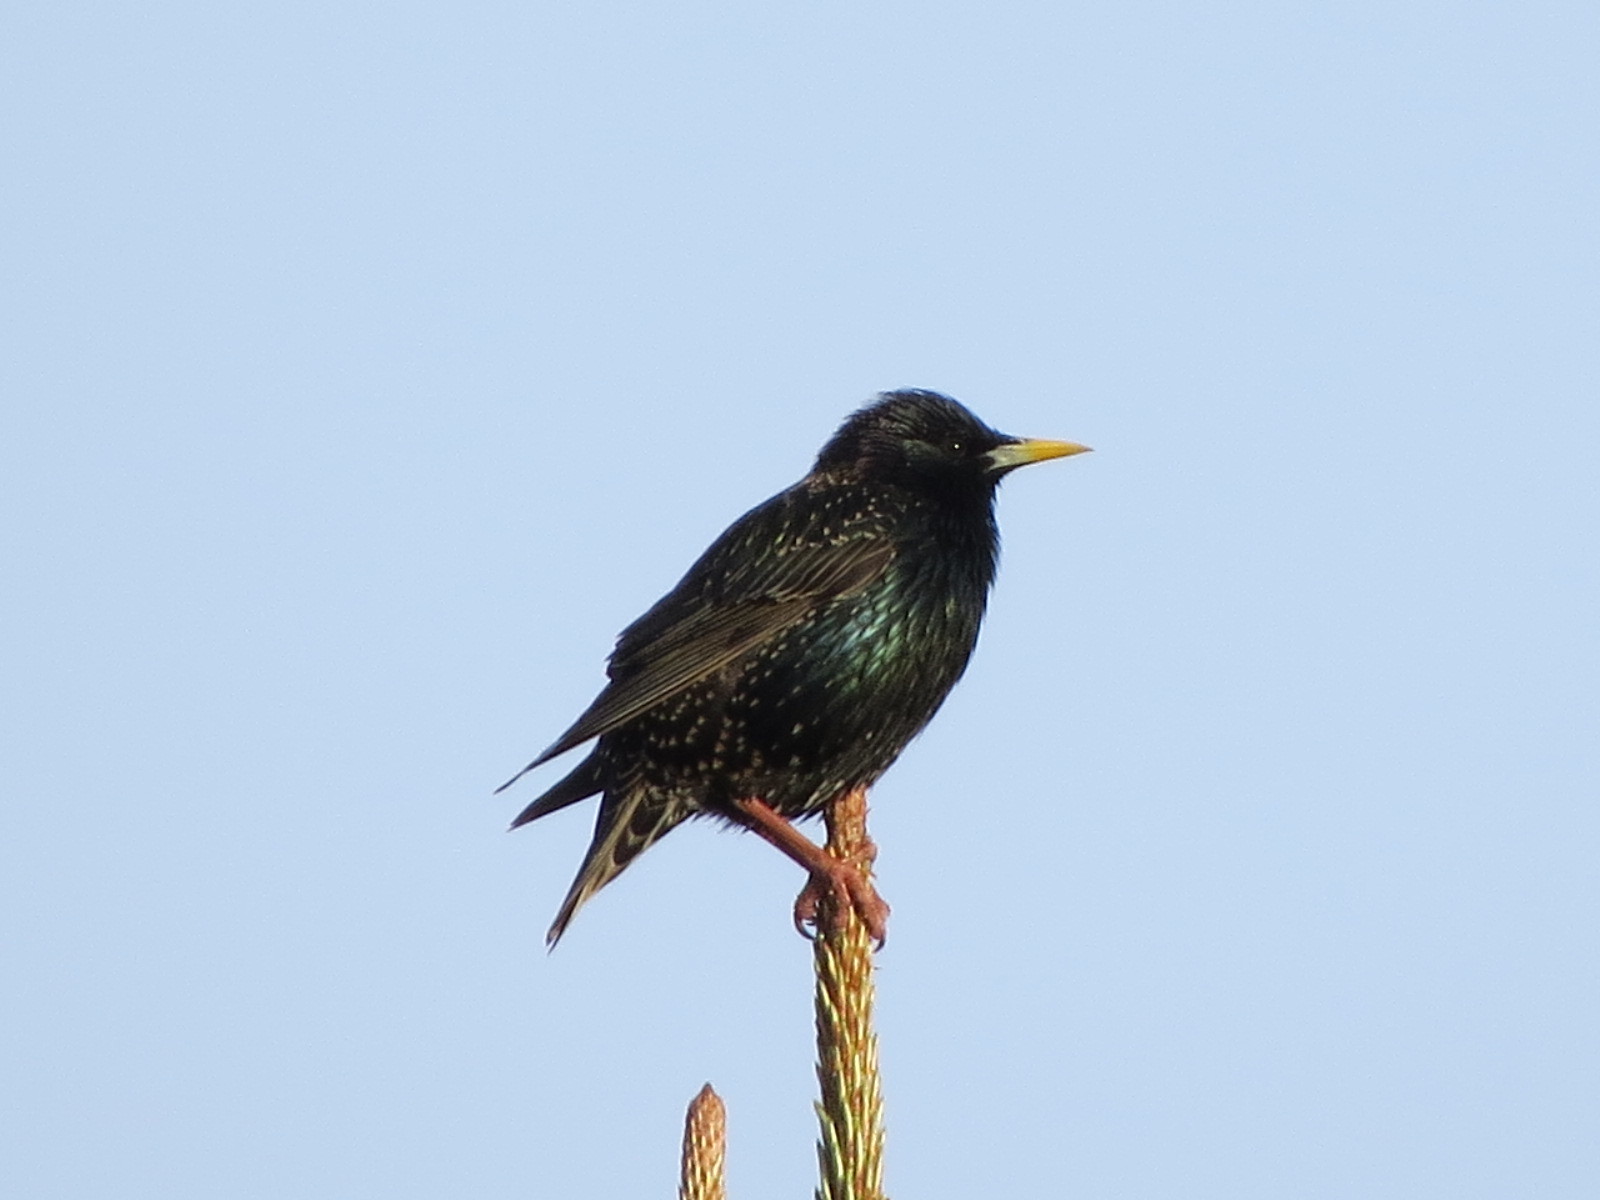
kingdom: Animalia
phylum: Chordata
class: Aves
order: Passeriformes
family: Sturnidae
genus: Sturnus
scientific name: Sturnus vulgaris
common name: Common starling
